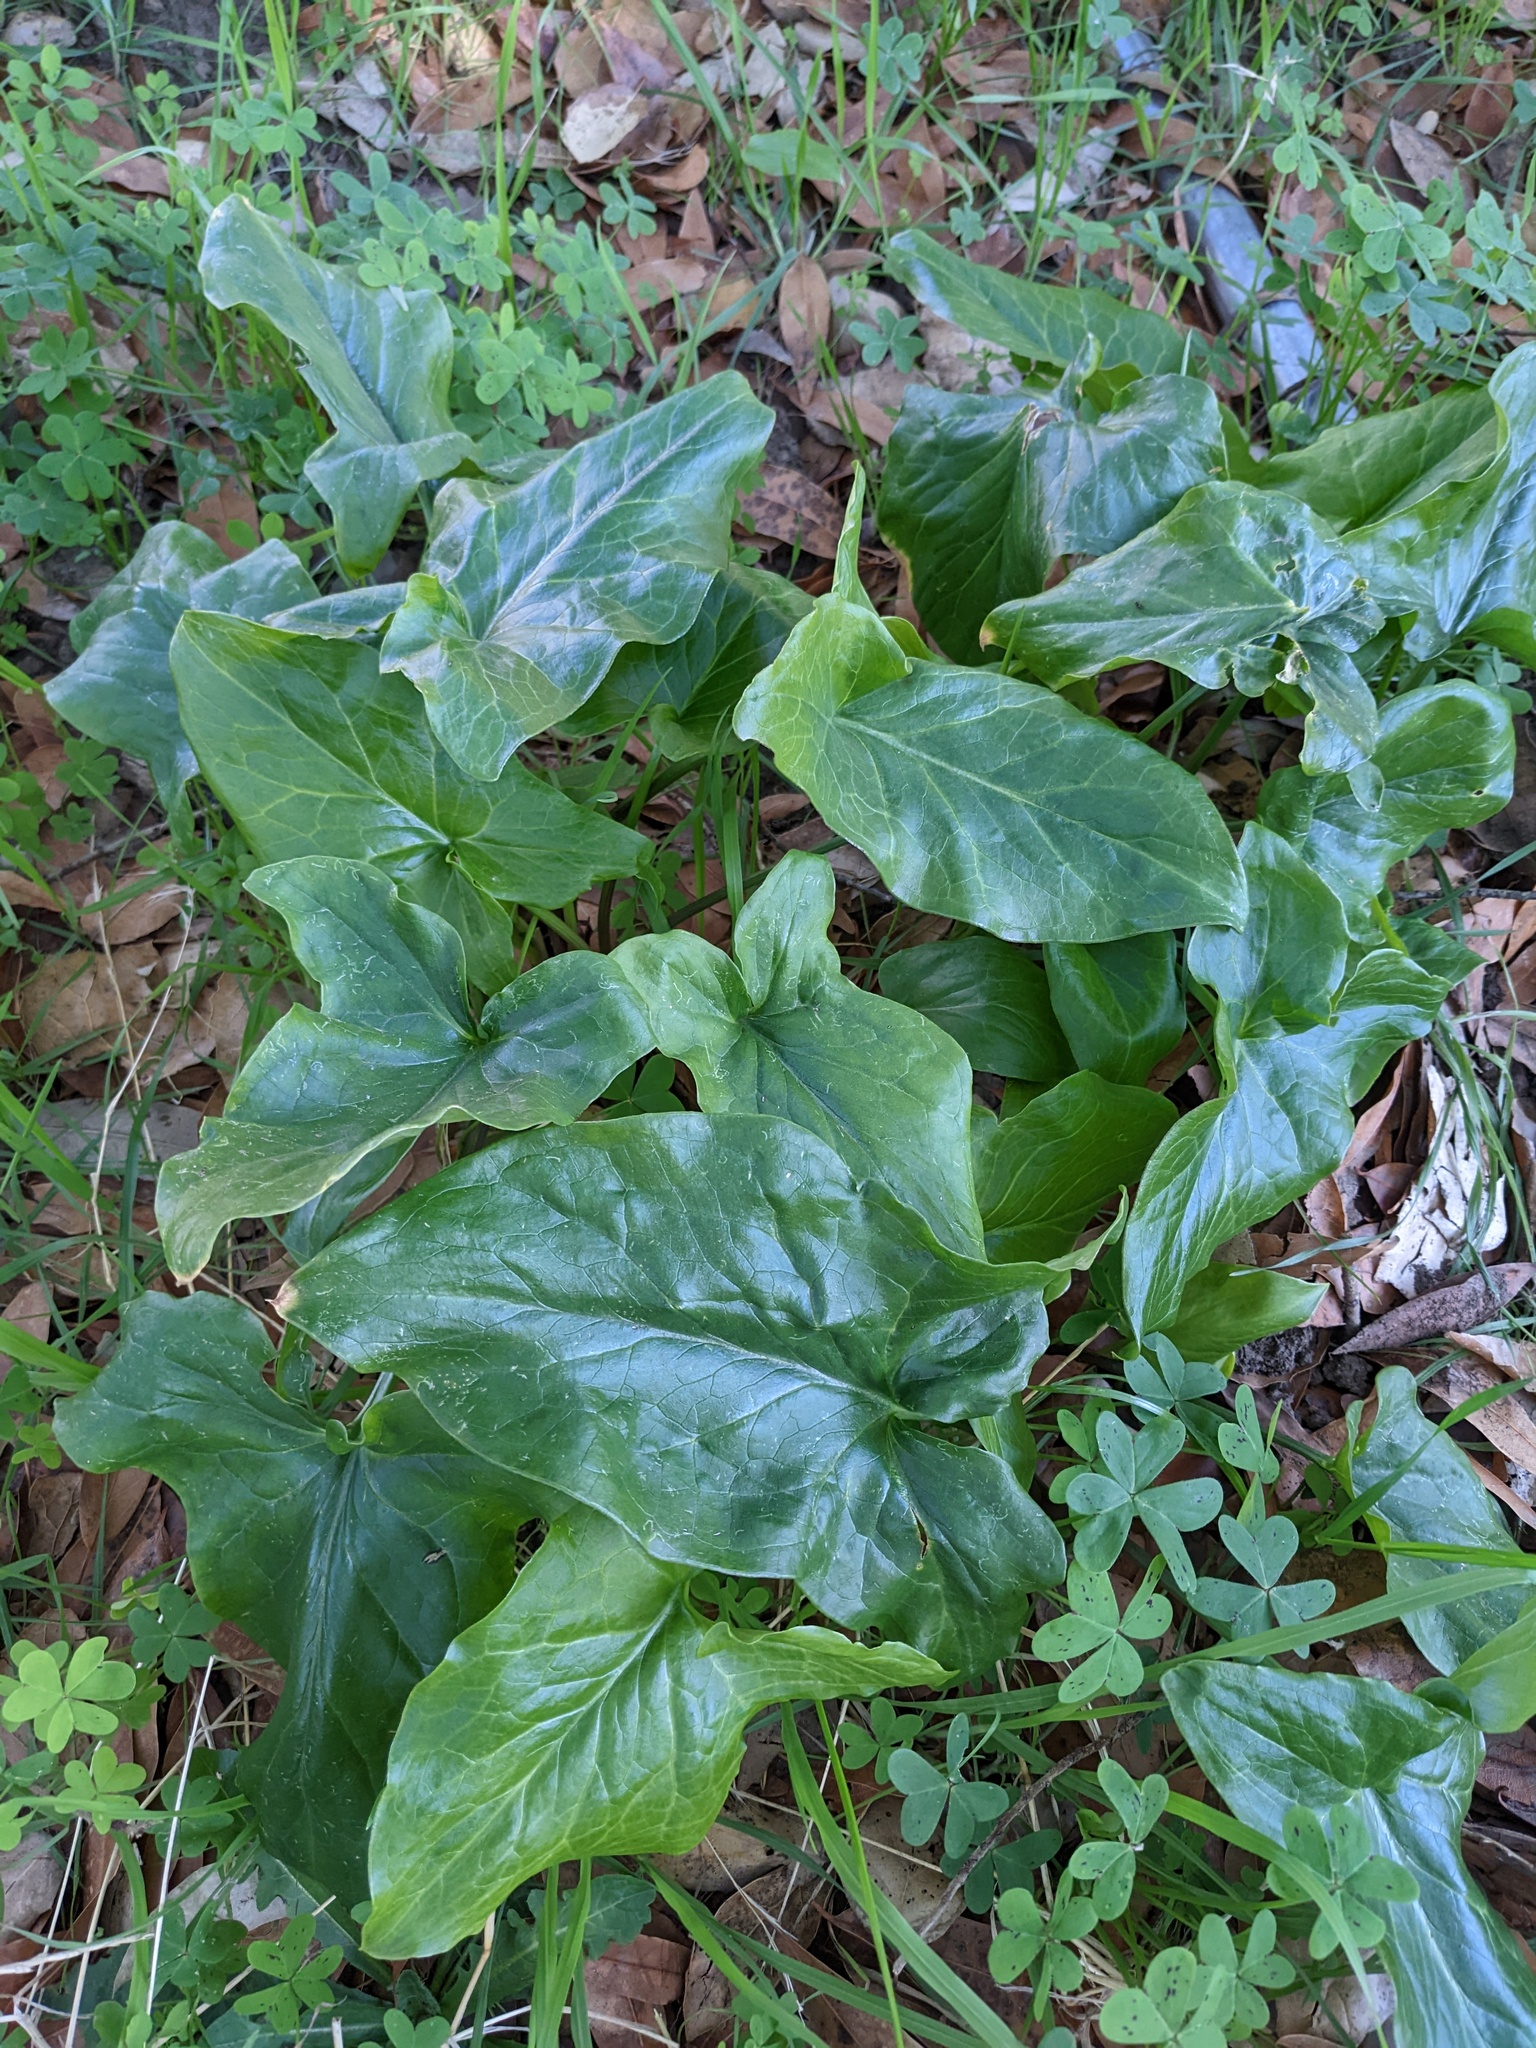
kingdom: Plantae
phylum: Tracheophyta
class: Liliopsida
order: Alismatales
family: Araceae
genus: Arum
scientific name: Arum italicum
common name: Italian lords-and-ladies
